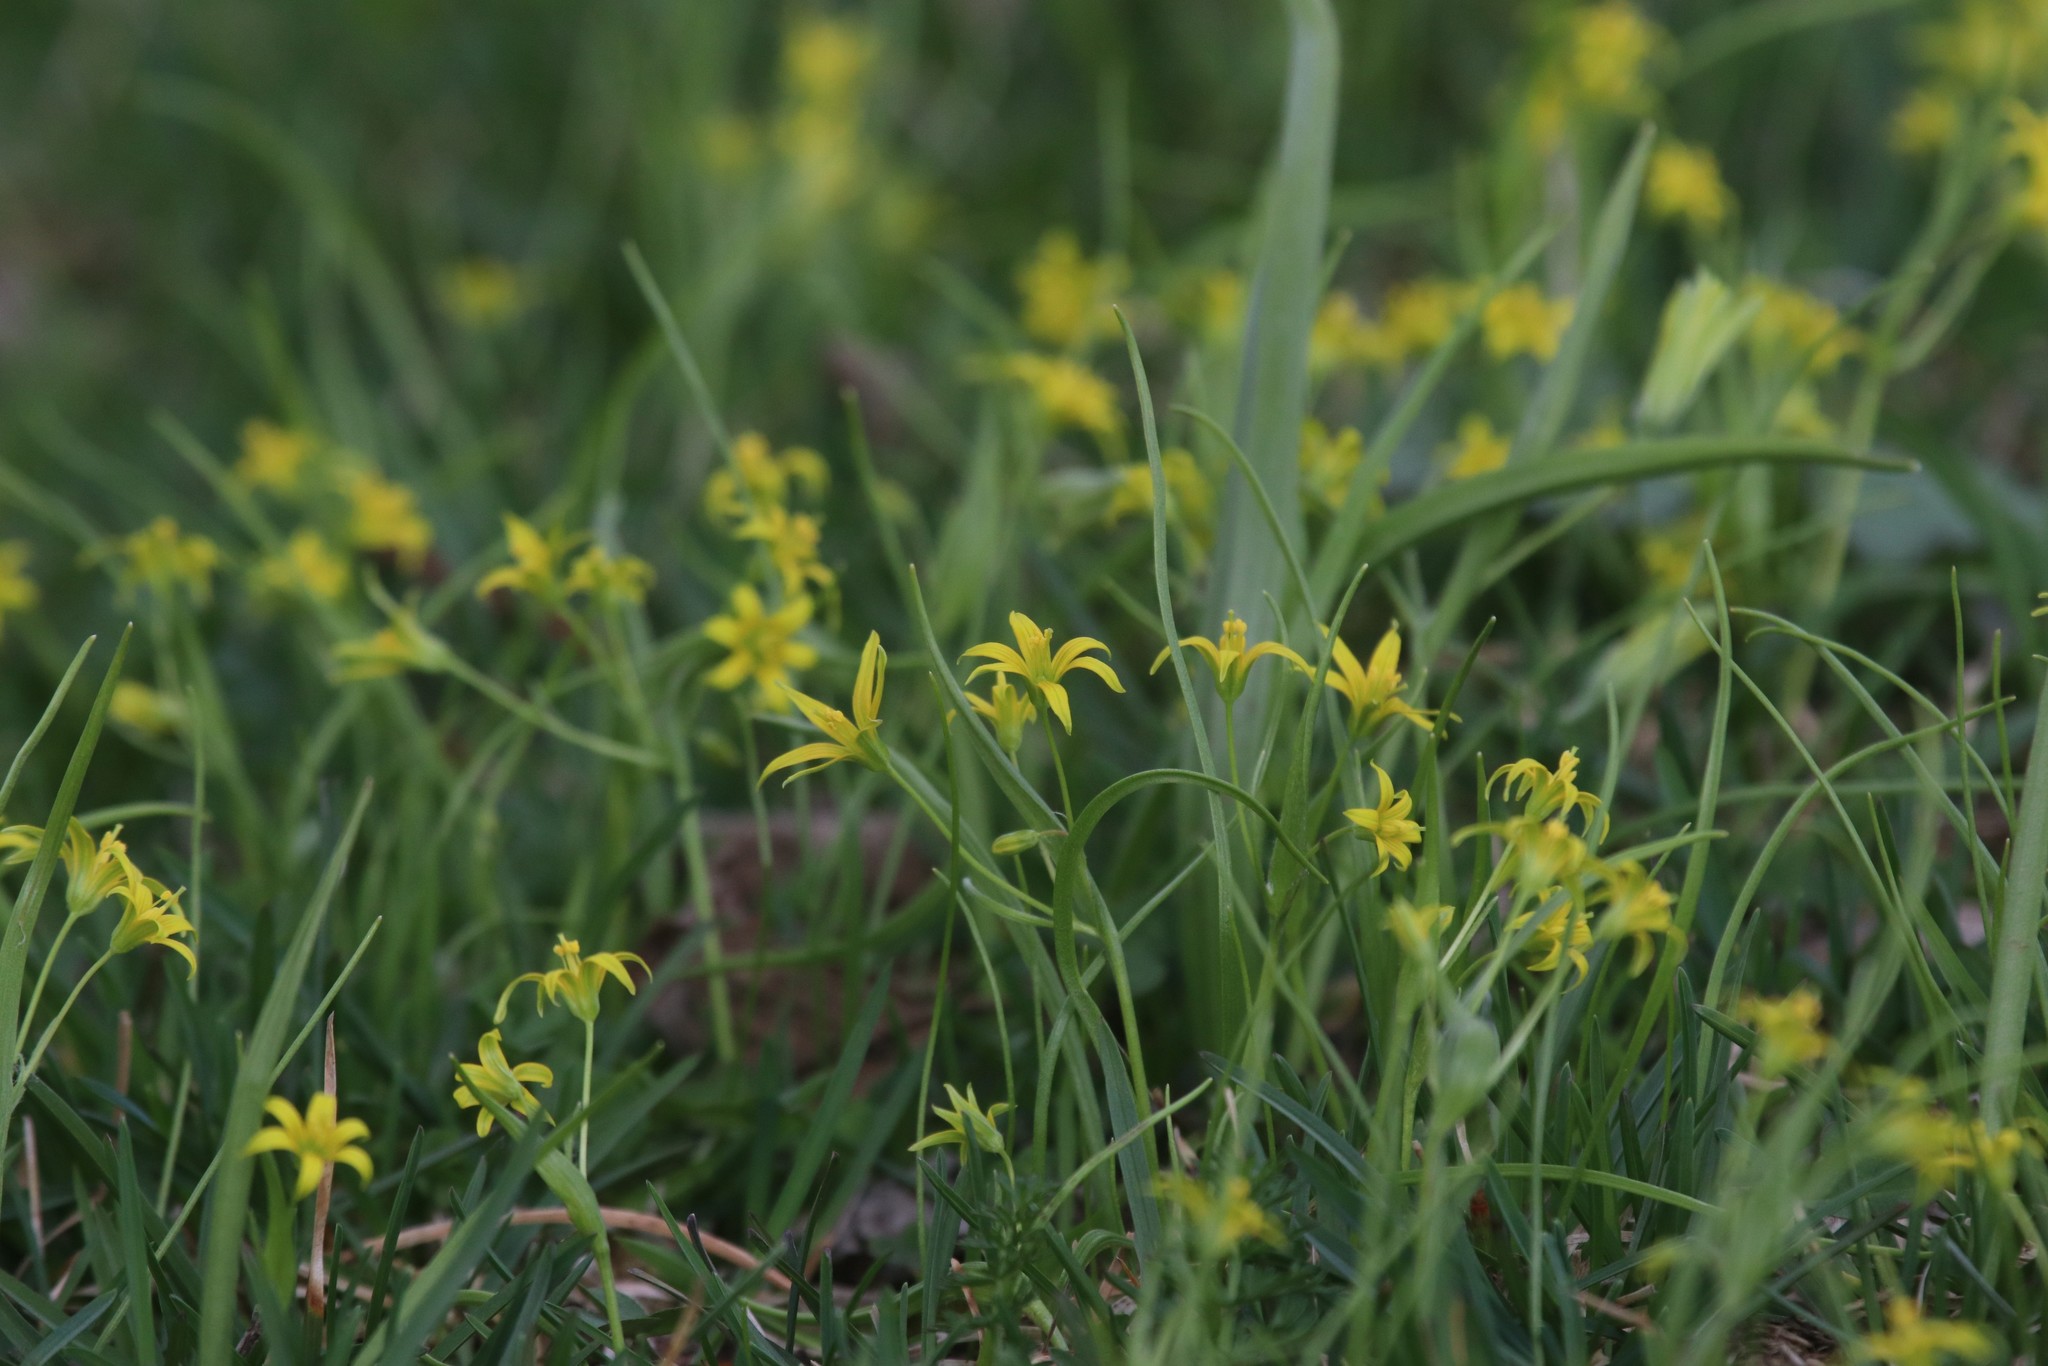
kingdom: Plantae
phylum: Tracheophyta
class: Liliopsida
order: Liliales
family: Liliaceae
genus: Gagea
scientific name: Gagea minima
